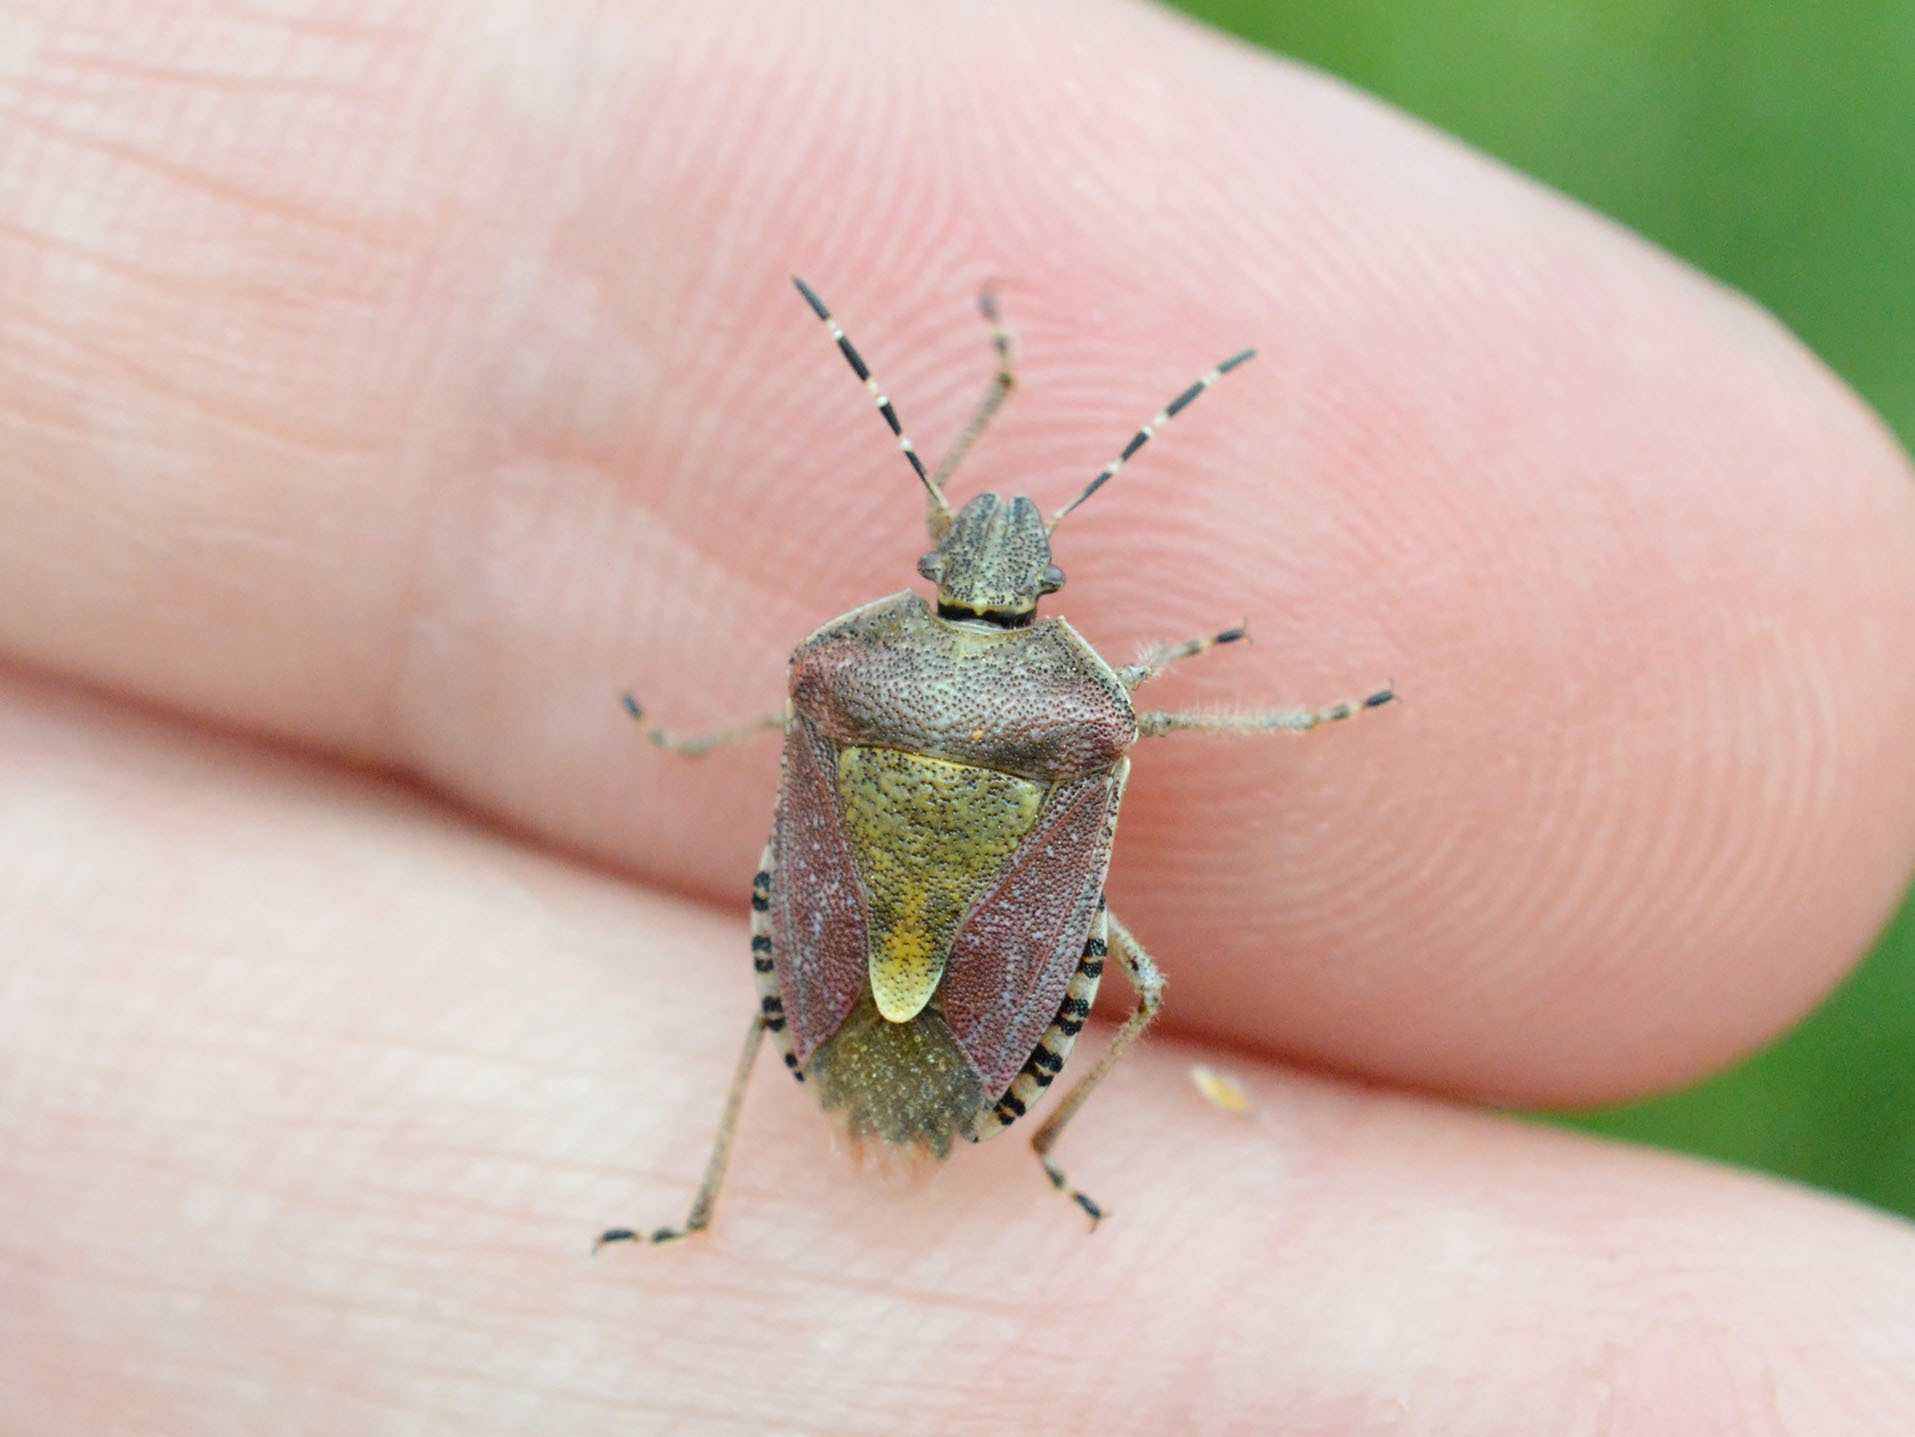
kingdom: Animalia
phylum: Arthropoda
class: Insecta
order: Hemiptera
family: Pentatomidae
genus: Dolycoris
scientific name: Dolycoris baccarum
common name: Sloe bug
